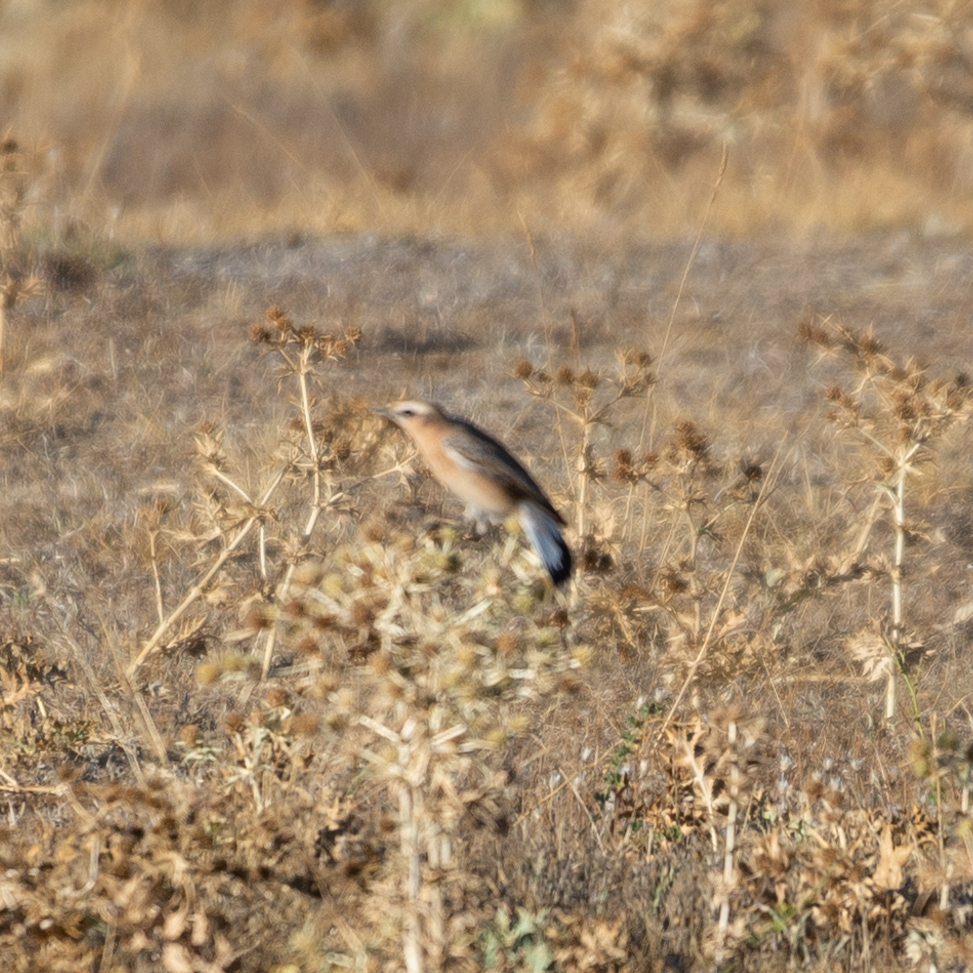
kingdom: Animalia
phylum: Chordata
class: Aves
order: Passeriformes
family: Muscicapidae
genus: Oenanthe
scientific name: Oenanthe oenanthe
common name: Northern wheatear
